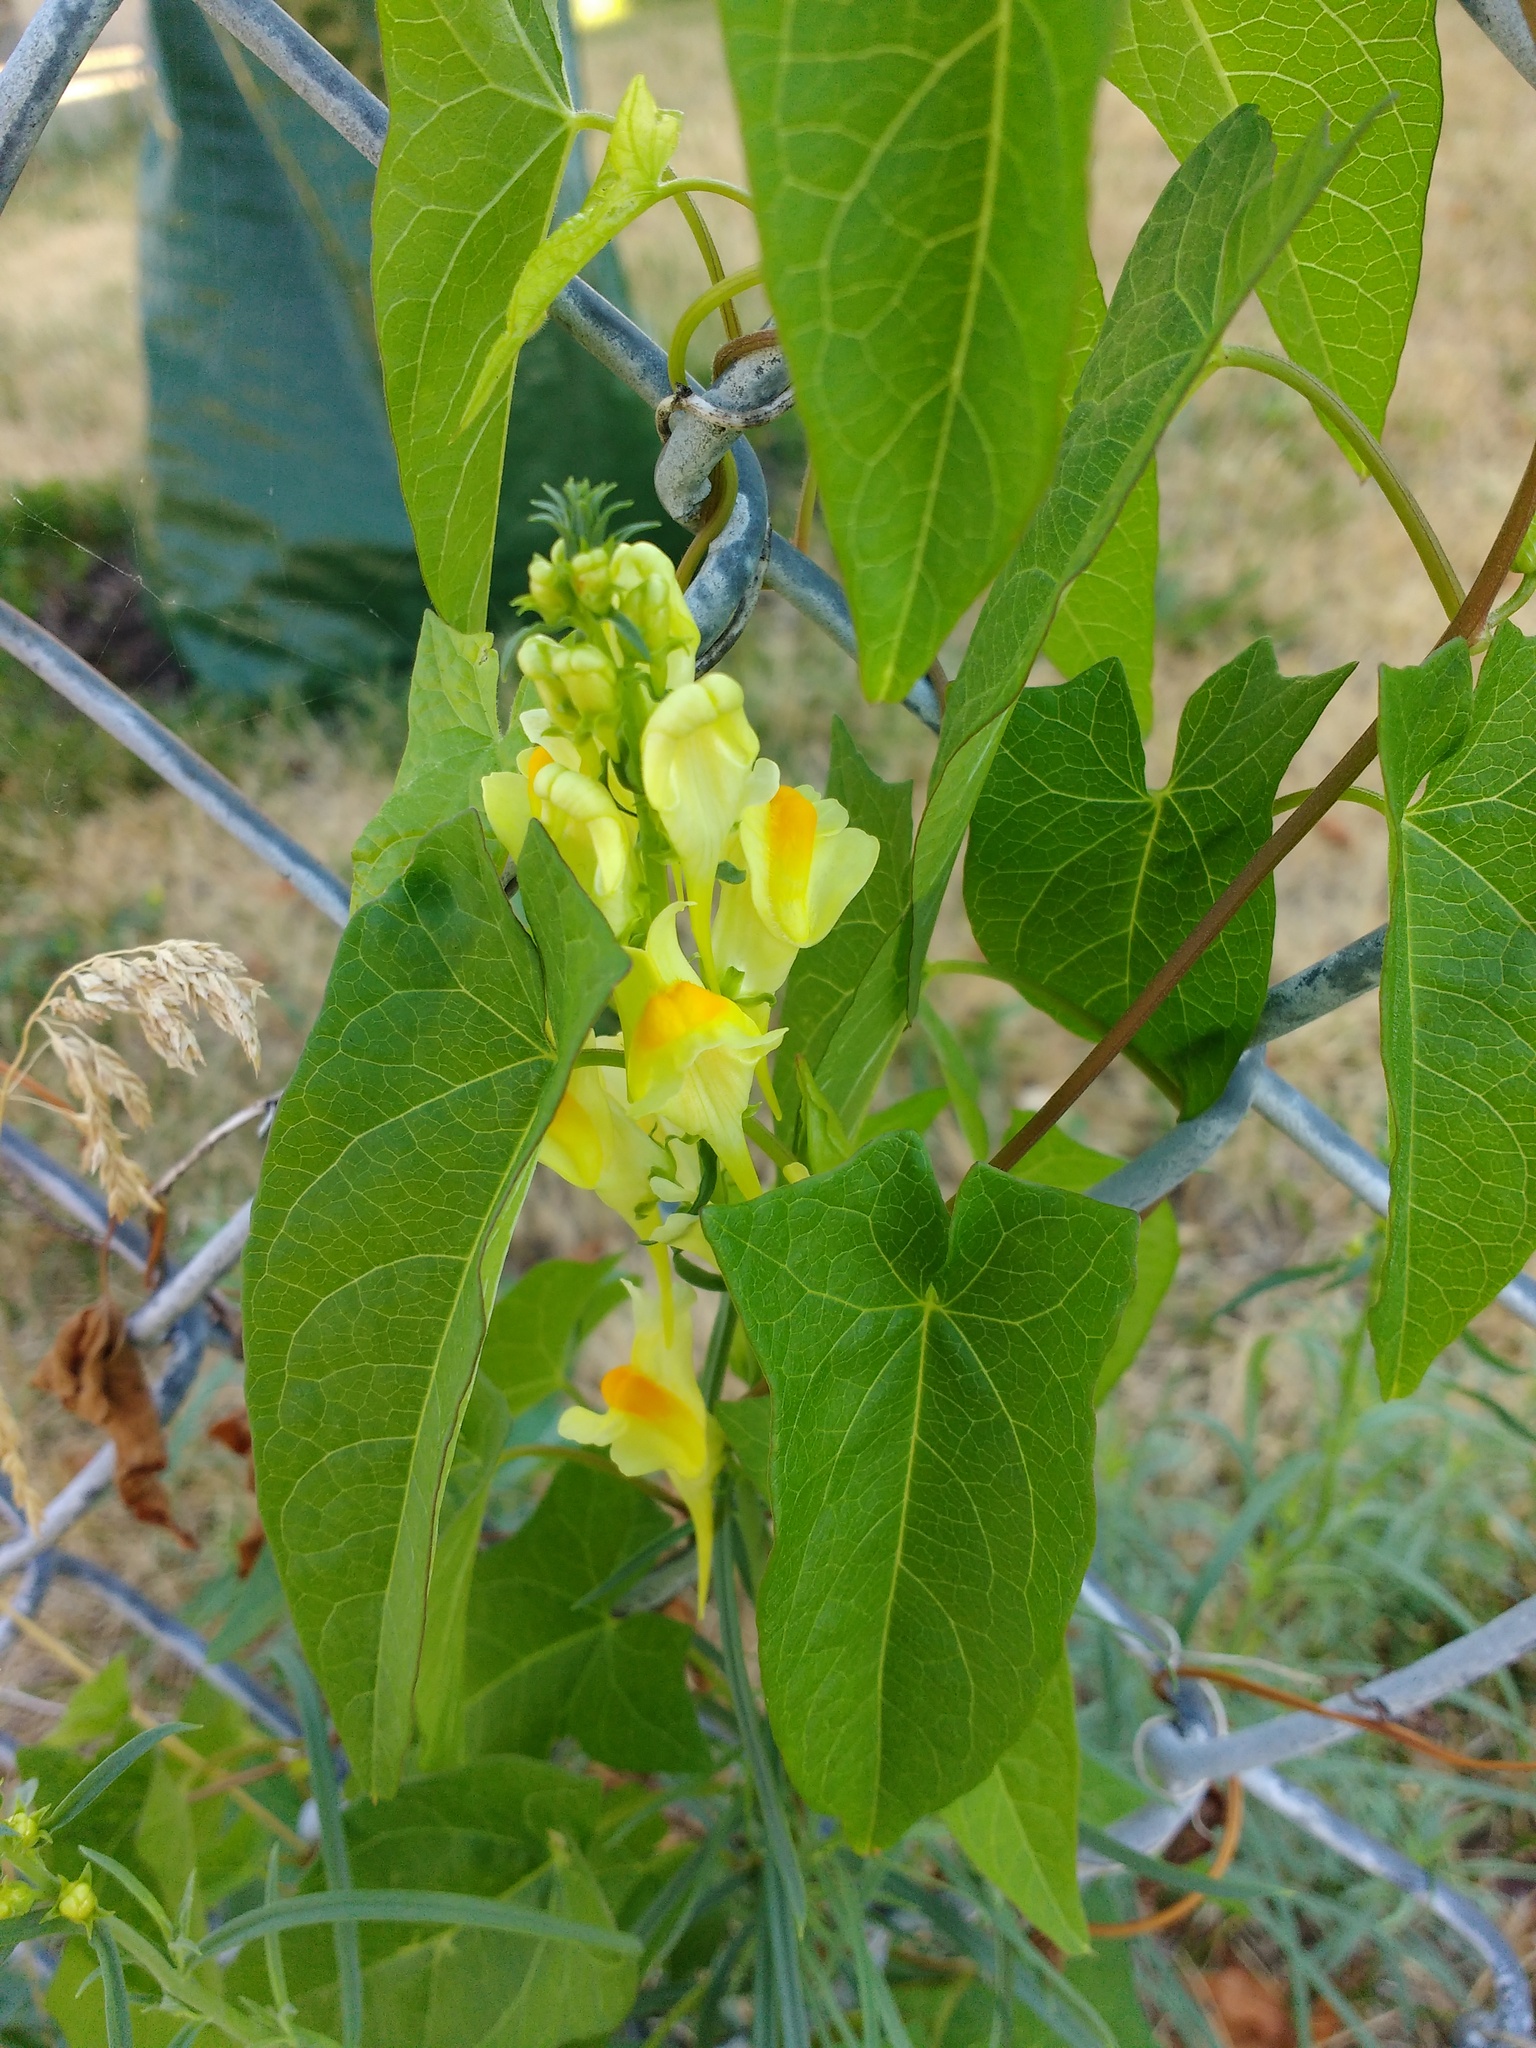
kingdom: Plantae
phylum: Tracheophyta
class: Magnoliopsida
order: Lamiales
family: Plantaginaceae
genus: Linaria
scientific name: Linaria vulgaris
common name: Butter and eggs
